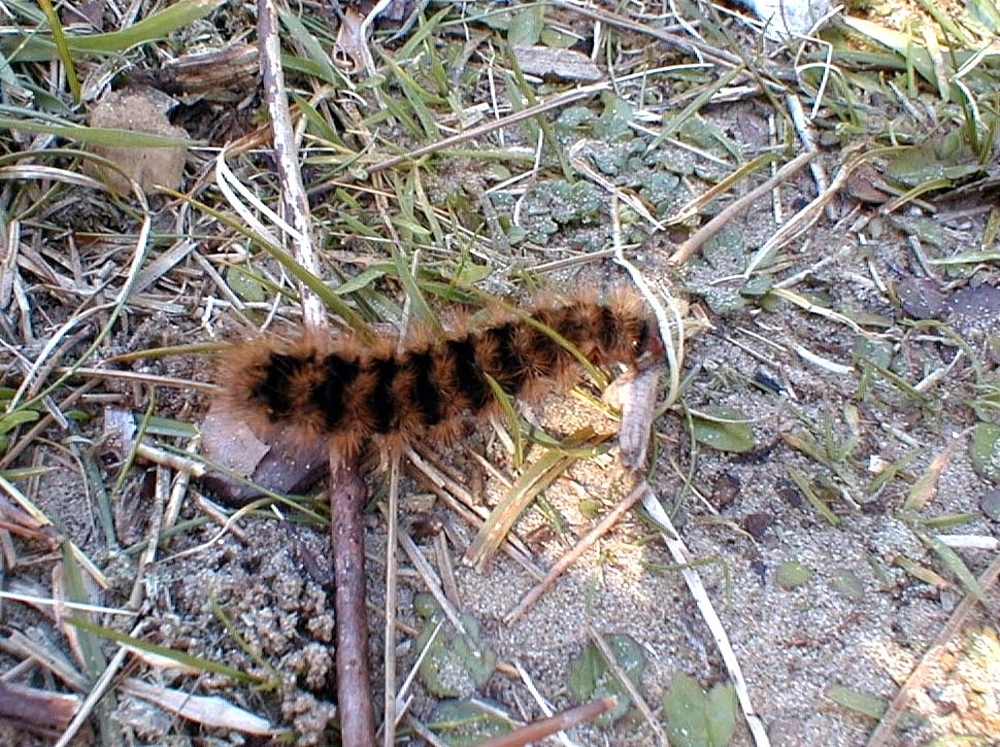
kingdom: Animalia
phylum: Arthropoda
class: Insecta
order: Lepidoptera
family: Erebidae
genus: Epicallia
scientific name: Epicallia villica
